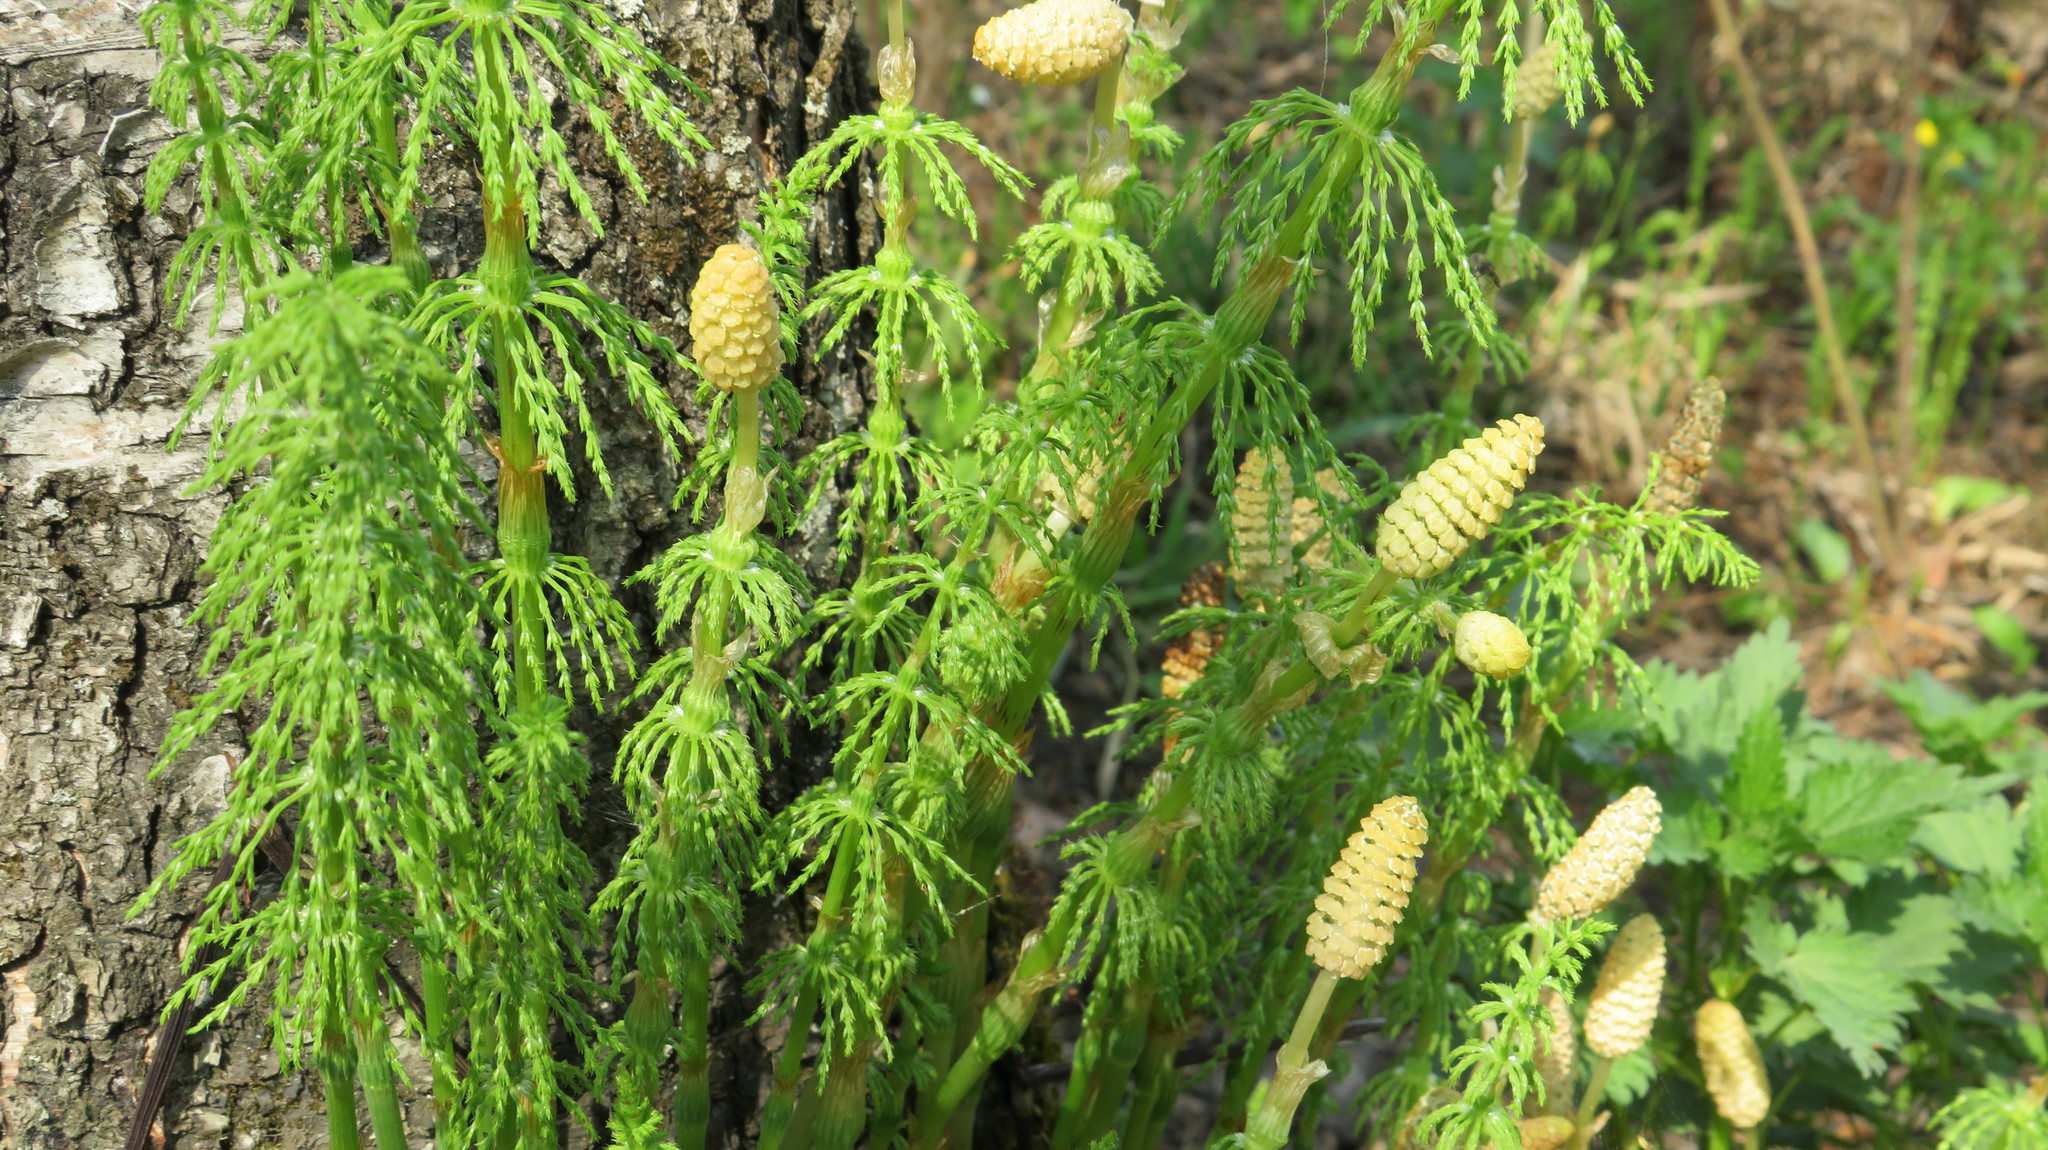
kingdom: Plantae
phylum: Tracheophyta
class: Polypodiopsida
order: Equisetales
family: Equisetaceae
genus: Equisetum
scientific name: Equisetum sylvaticum
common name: Wood horsetail
